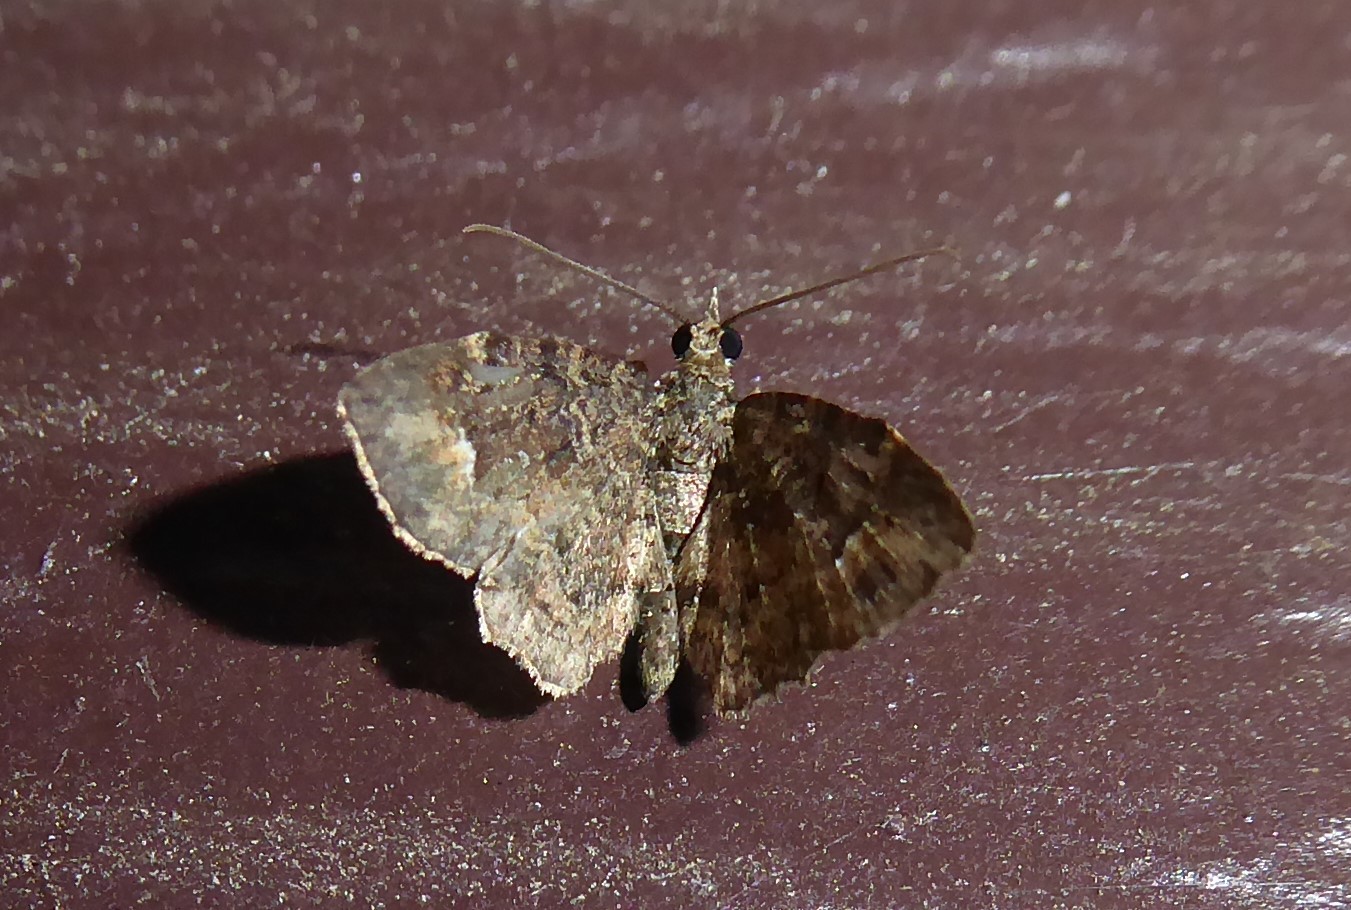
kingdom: Animalia
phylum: Arthropoda
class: Insecta
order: Lepidoptera
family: Geometridae
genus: Pasiphilodes
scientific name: Pasiphilodes testulata
